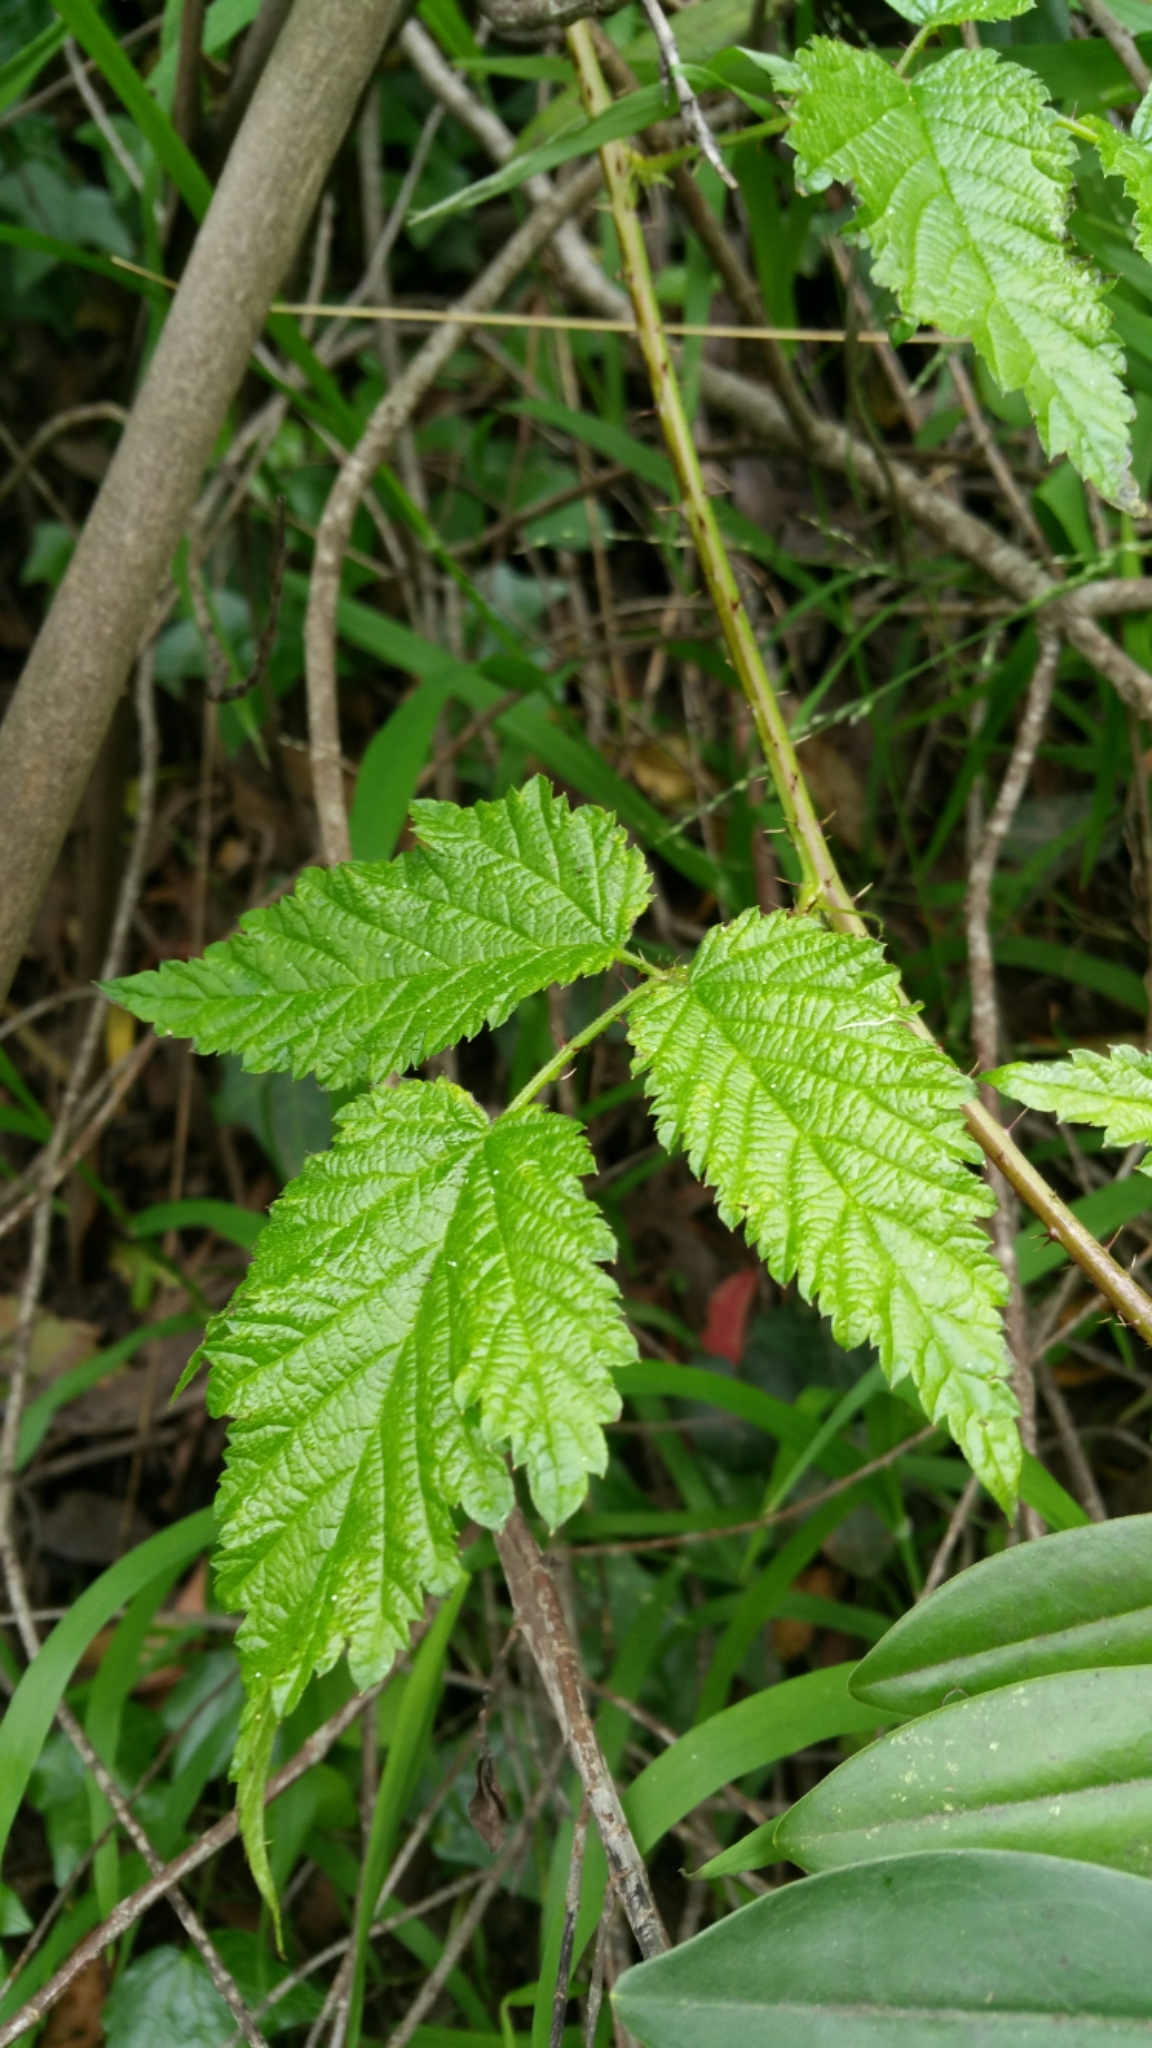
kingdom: Plantae
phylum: Tracheophyta
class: Magnoliopsida
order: Rosales
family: Rosaceae
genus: Rubus
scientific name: Rubus ursinus
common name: Pacific blackberry
